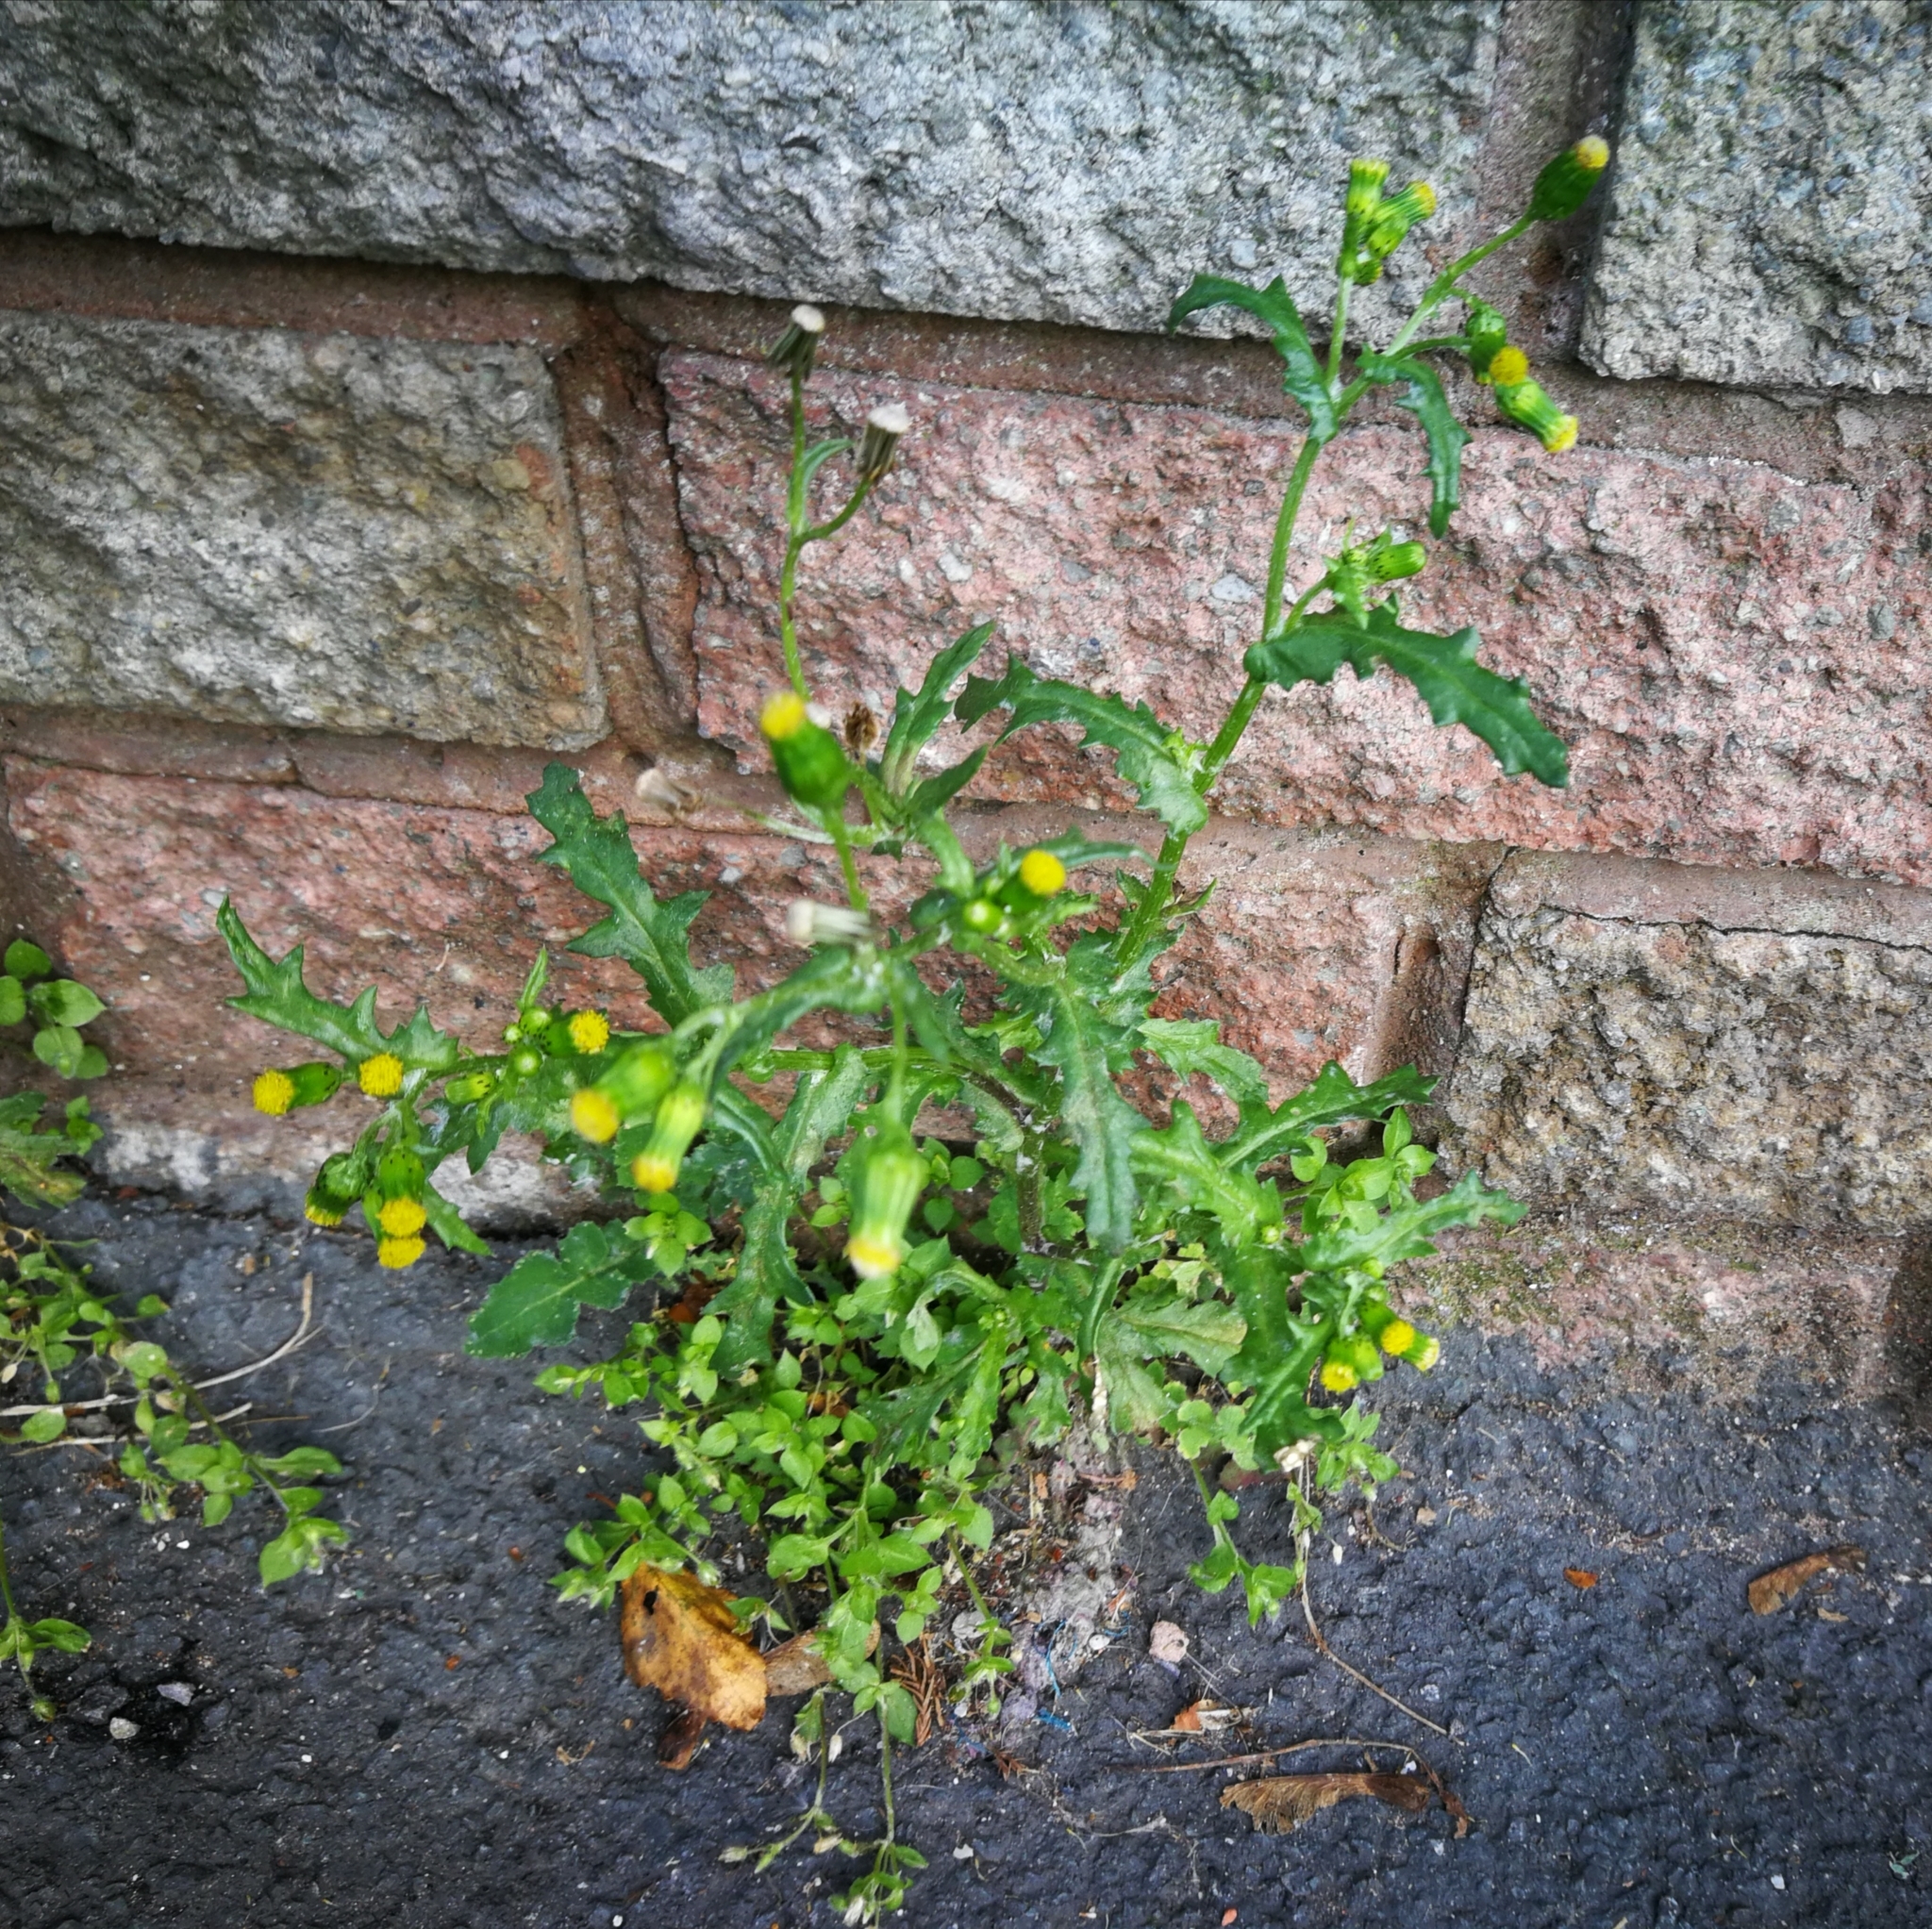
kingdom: Plantae
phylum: Tracheophyta
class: Magnoliopsida
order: Asterales
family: Asteraceae
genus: Senecio
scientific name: Senecio vulgaris
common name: Old-man-in-the-spring
